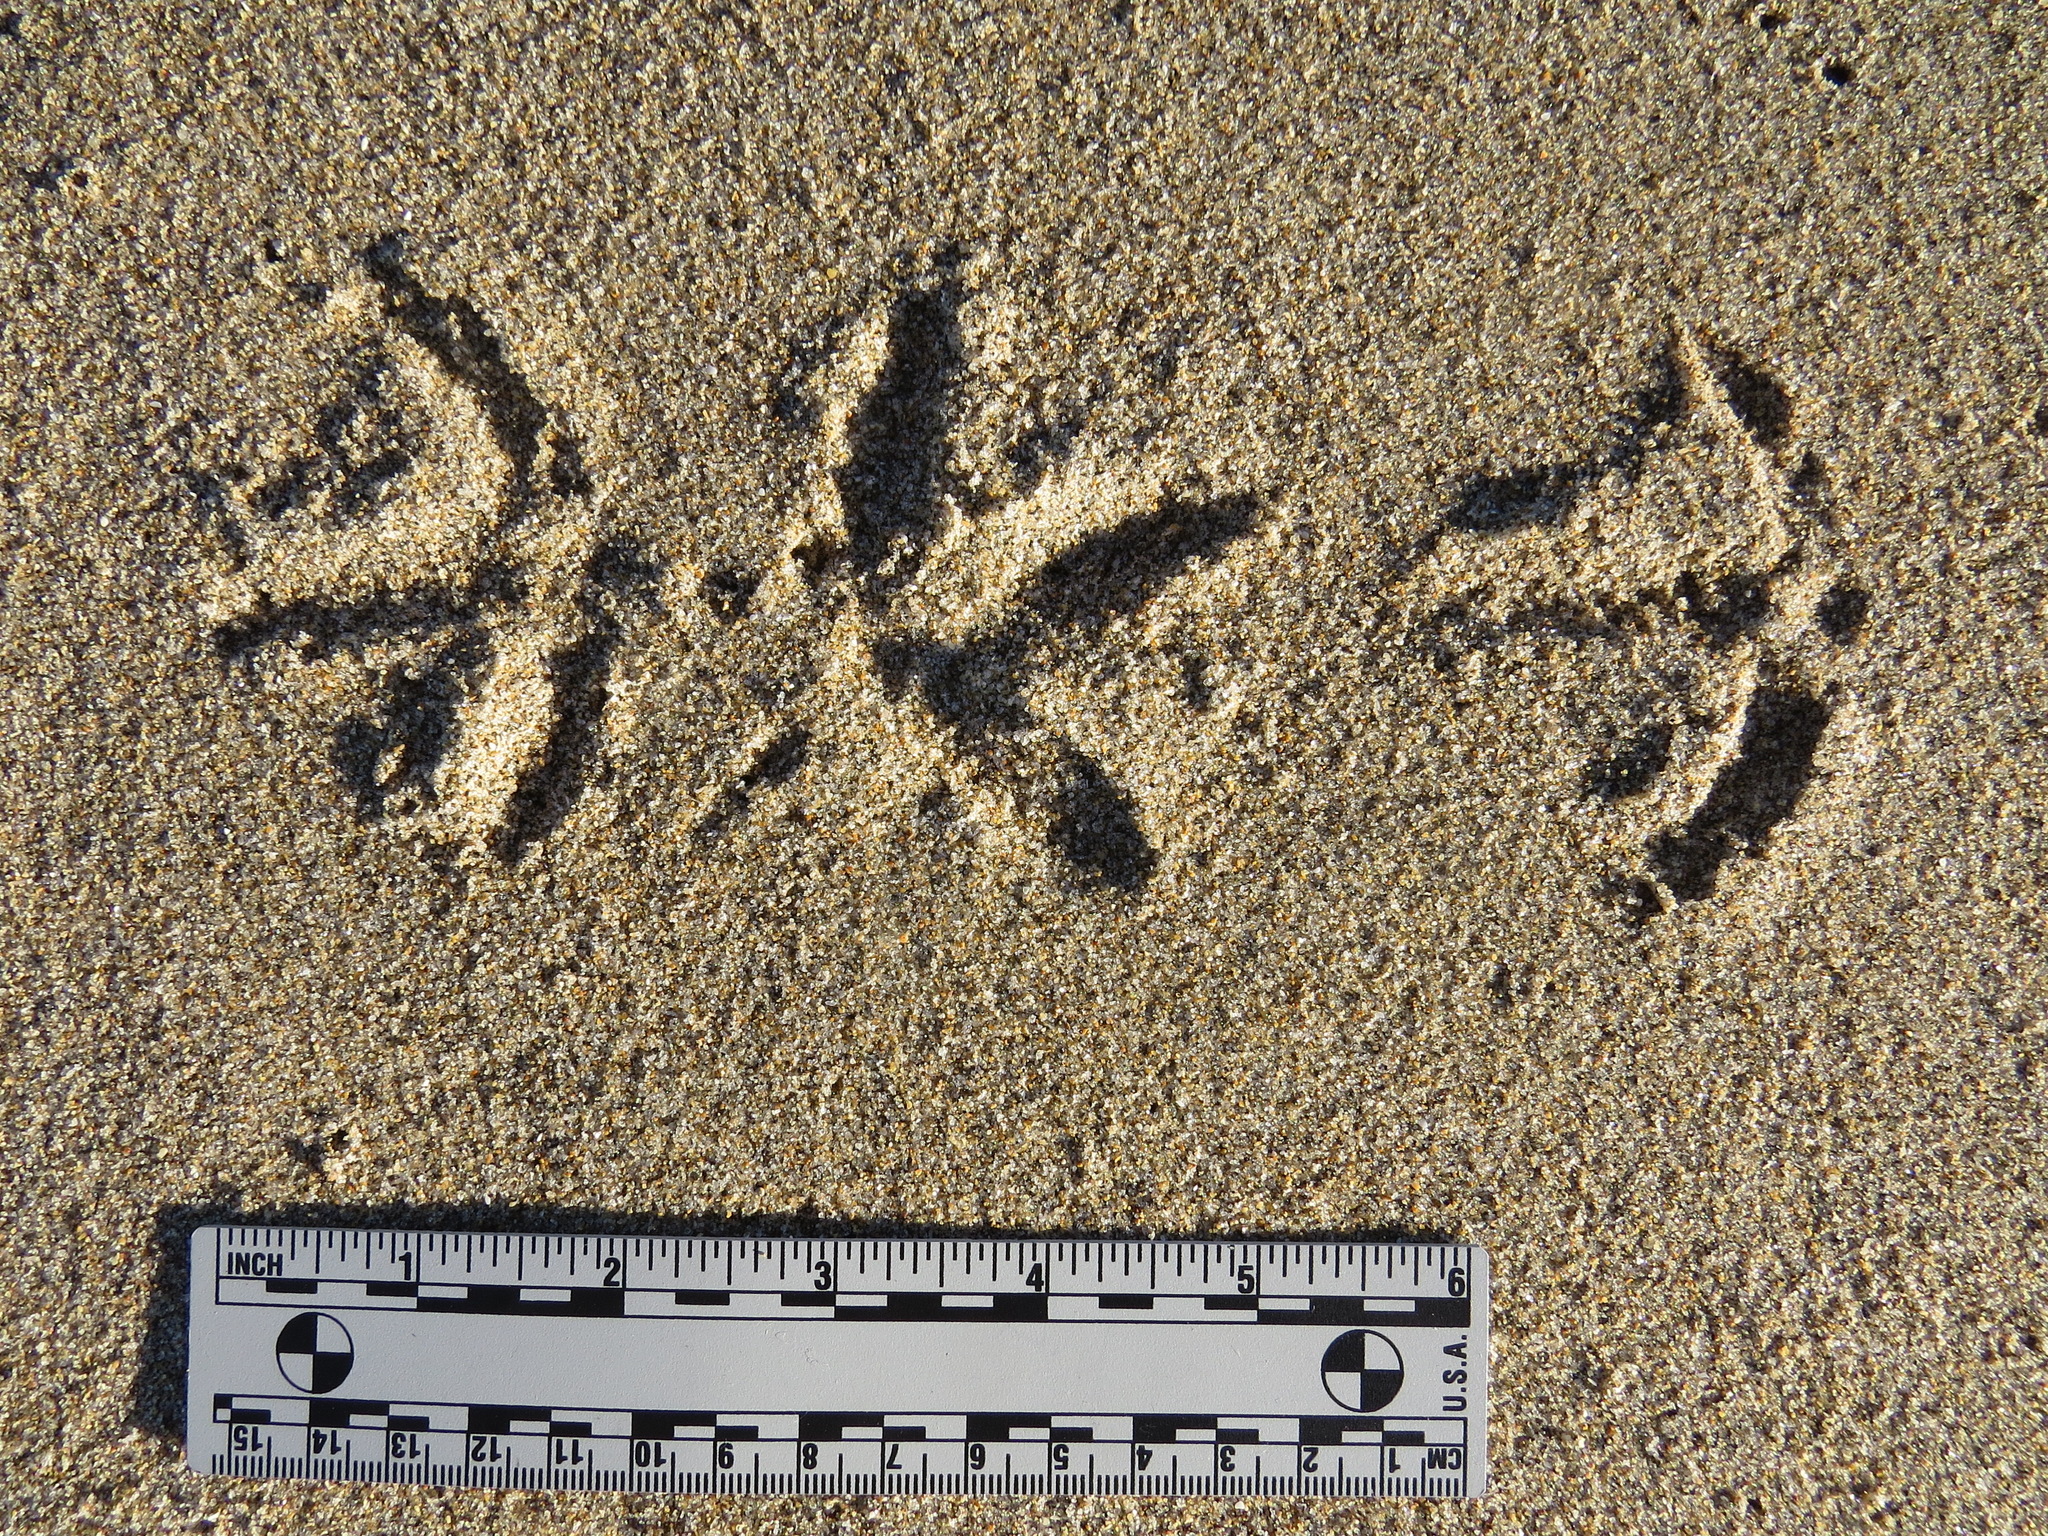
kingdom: Animalia
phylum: Chordata
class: Aves
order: Charadriiformes
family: Scolopacidae
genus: Numenius
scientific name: Numenius americanus
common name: Long-billed curlew
